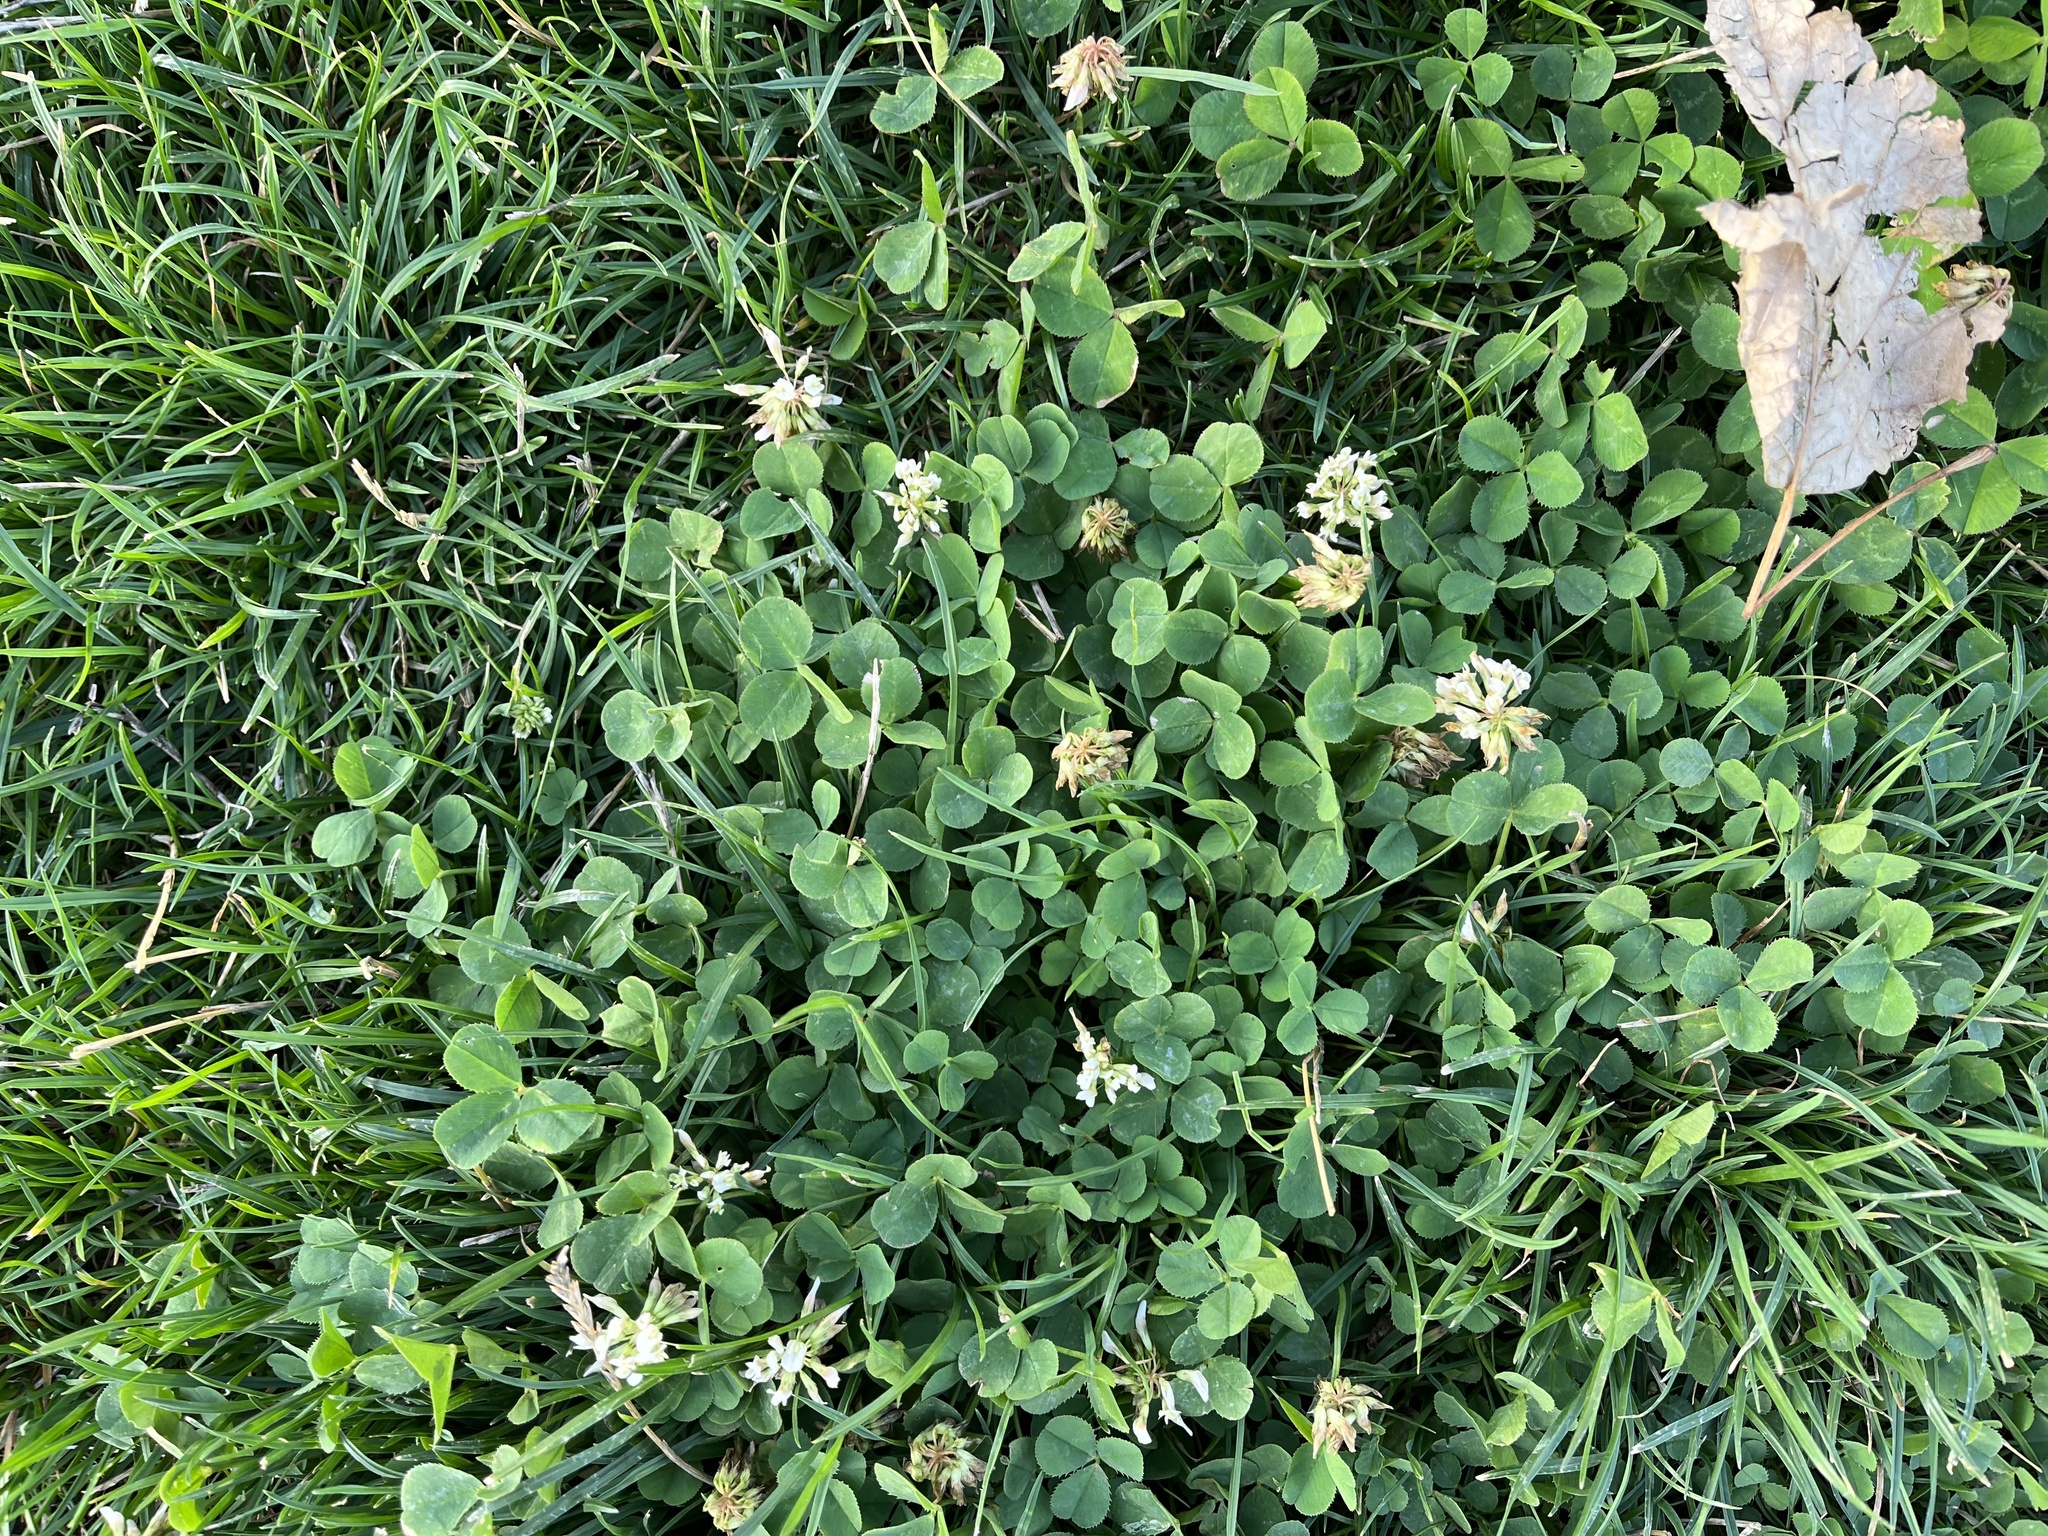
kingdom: Plantae
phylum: Tracheophyta
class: Magnoliopsida
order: Fabales
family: Fabaceae
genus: Trifolium
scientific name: Trifolium repens
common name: White clover
